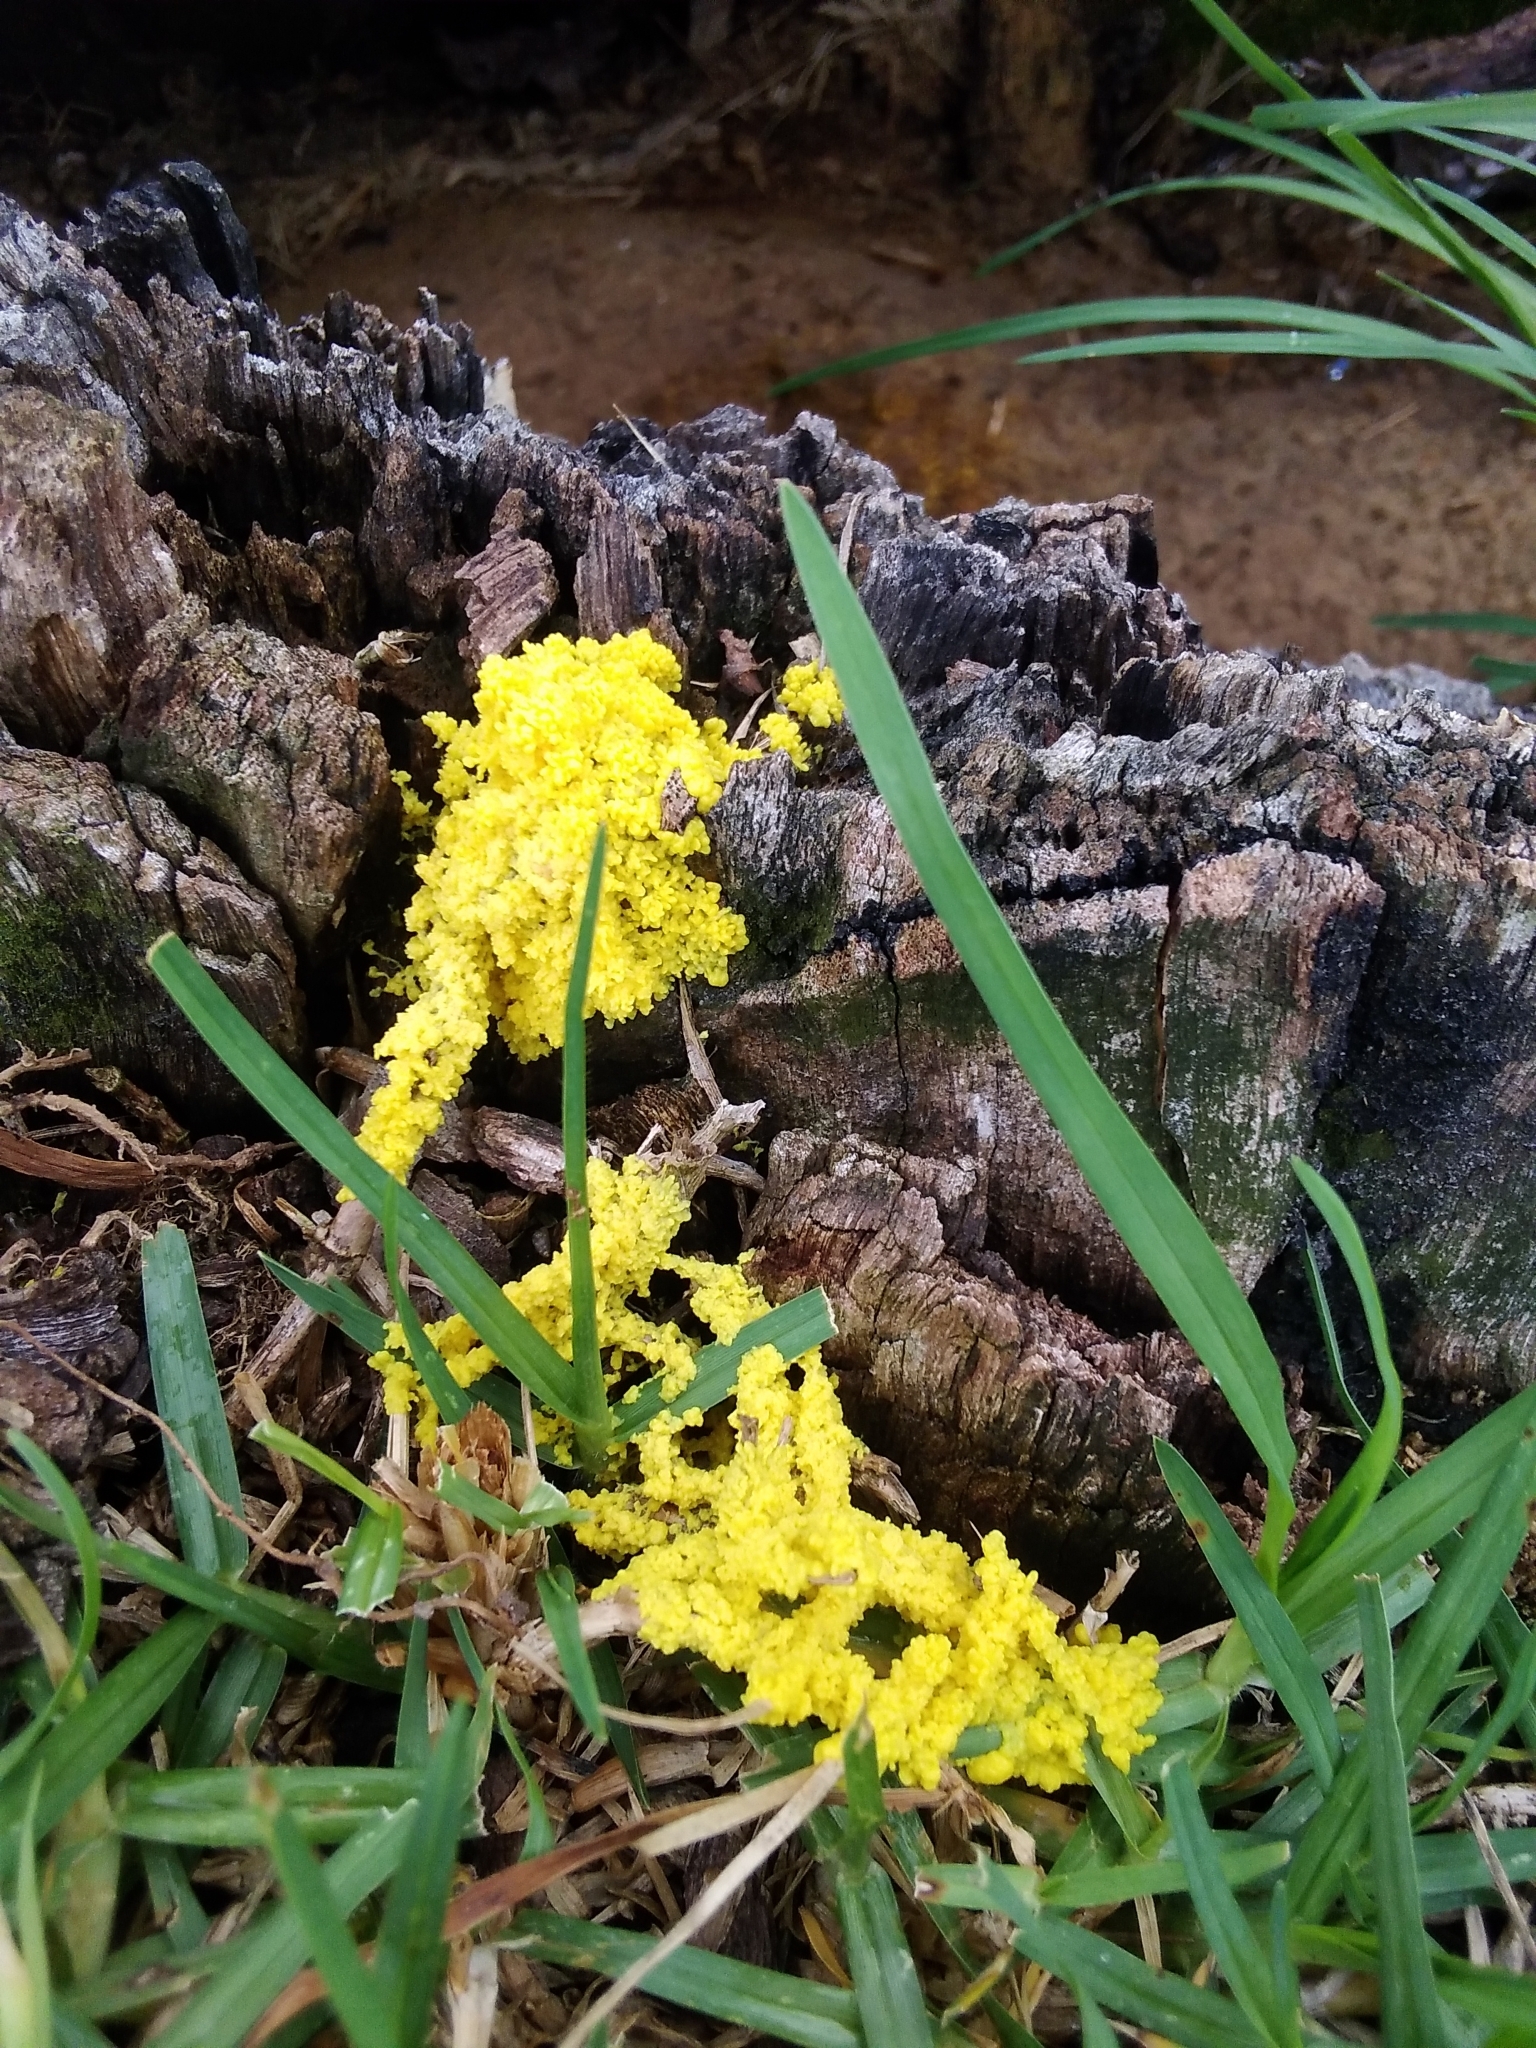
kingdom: Protozoa
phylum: Mycetozoa
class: Myxomycetes
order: Physarales
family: Physaraceae
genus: Fuligo
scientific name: Fuligo septica
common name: Dog vomit slime mold
